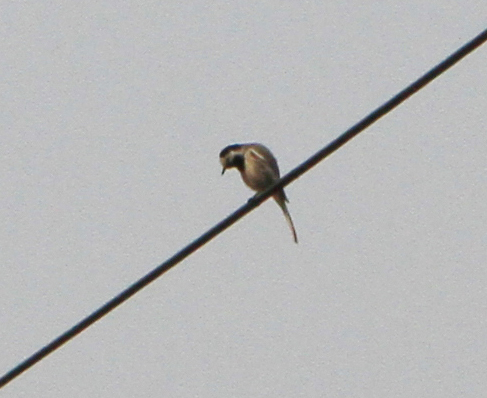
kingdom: Animalia
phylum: Chordata
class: Aves
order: Passeriformes
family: Motacillidae
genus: Motacilla
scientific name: Motacilla alba
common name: White wagtail
